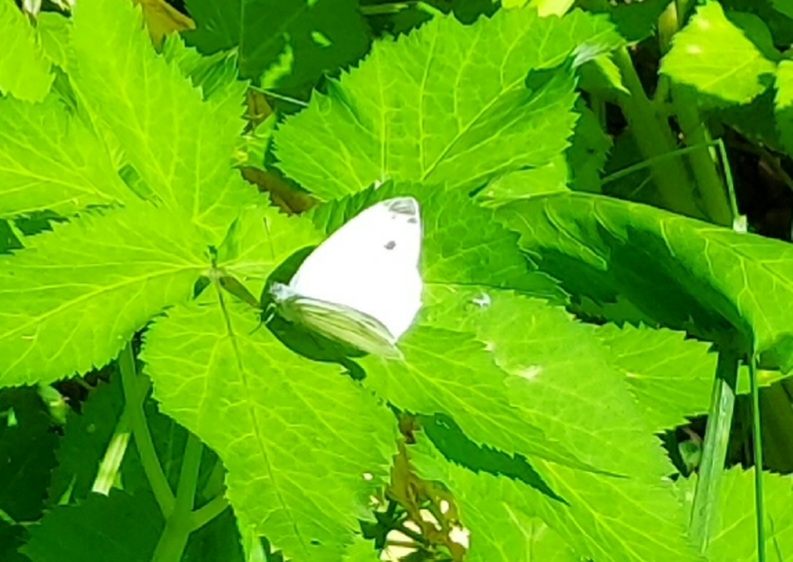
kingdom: Animalia
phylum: Arthropoda
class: Insecta
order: Lepidoptera
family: Pieridae
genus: Pieris
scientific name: Pieris napi
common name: Green-veined white
